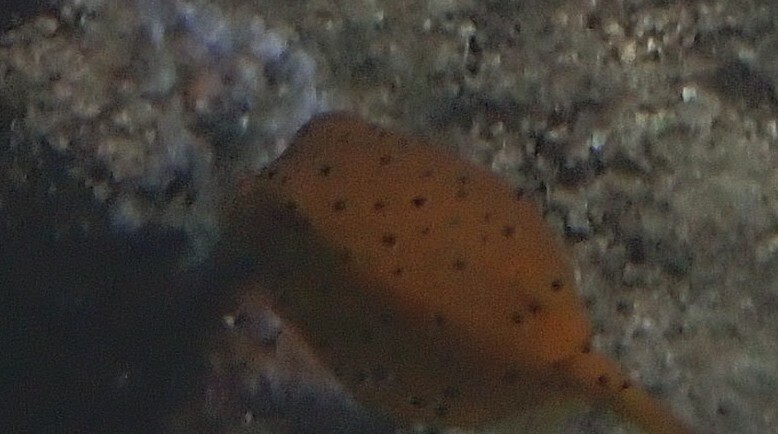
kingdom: Animalia
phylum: Chordata
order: Tetraodontiformes
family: Ostraciidae
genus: Ostracion
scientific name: Ostracion cubicus
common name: Cube trunkfish
